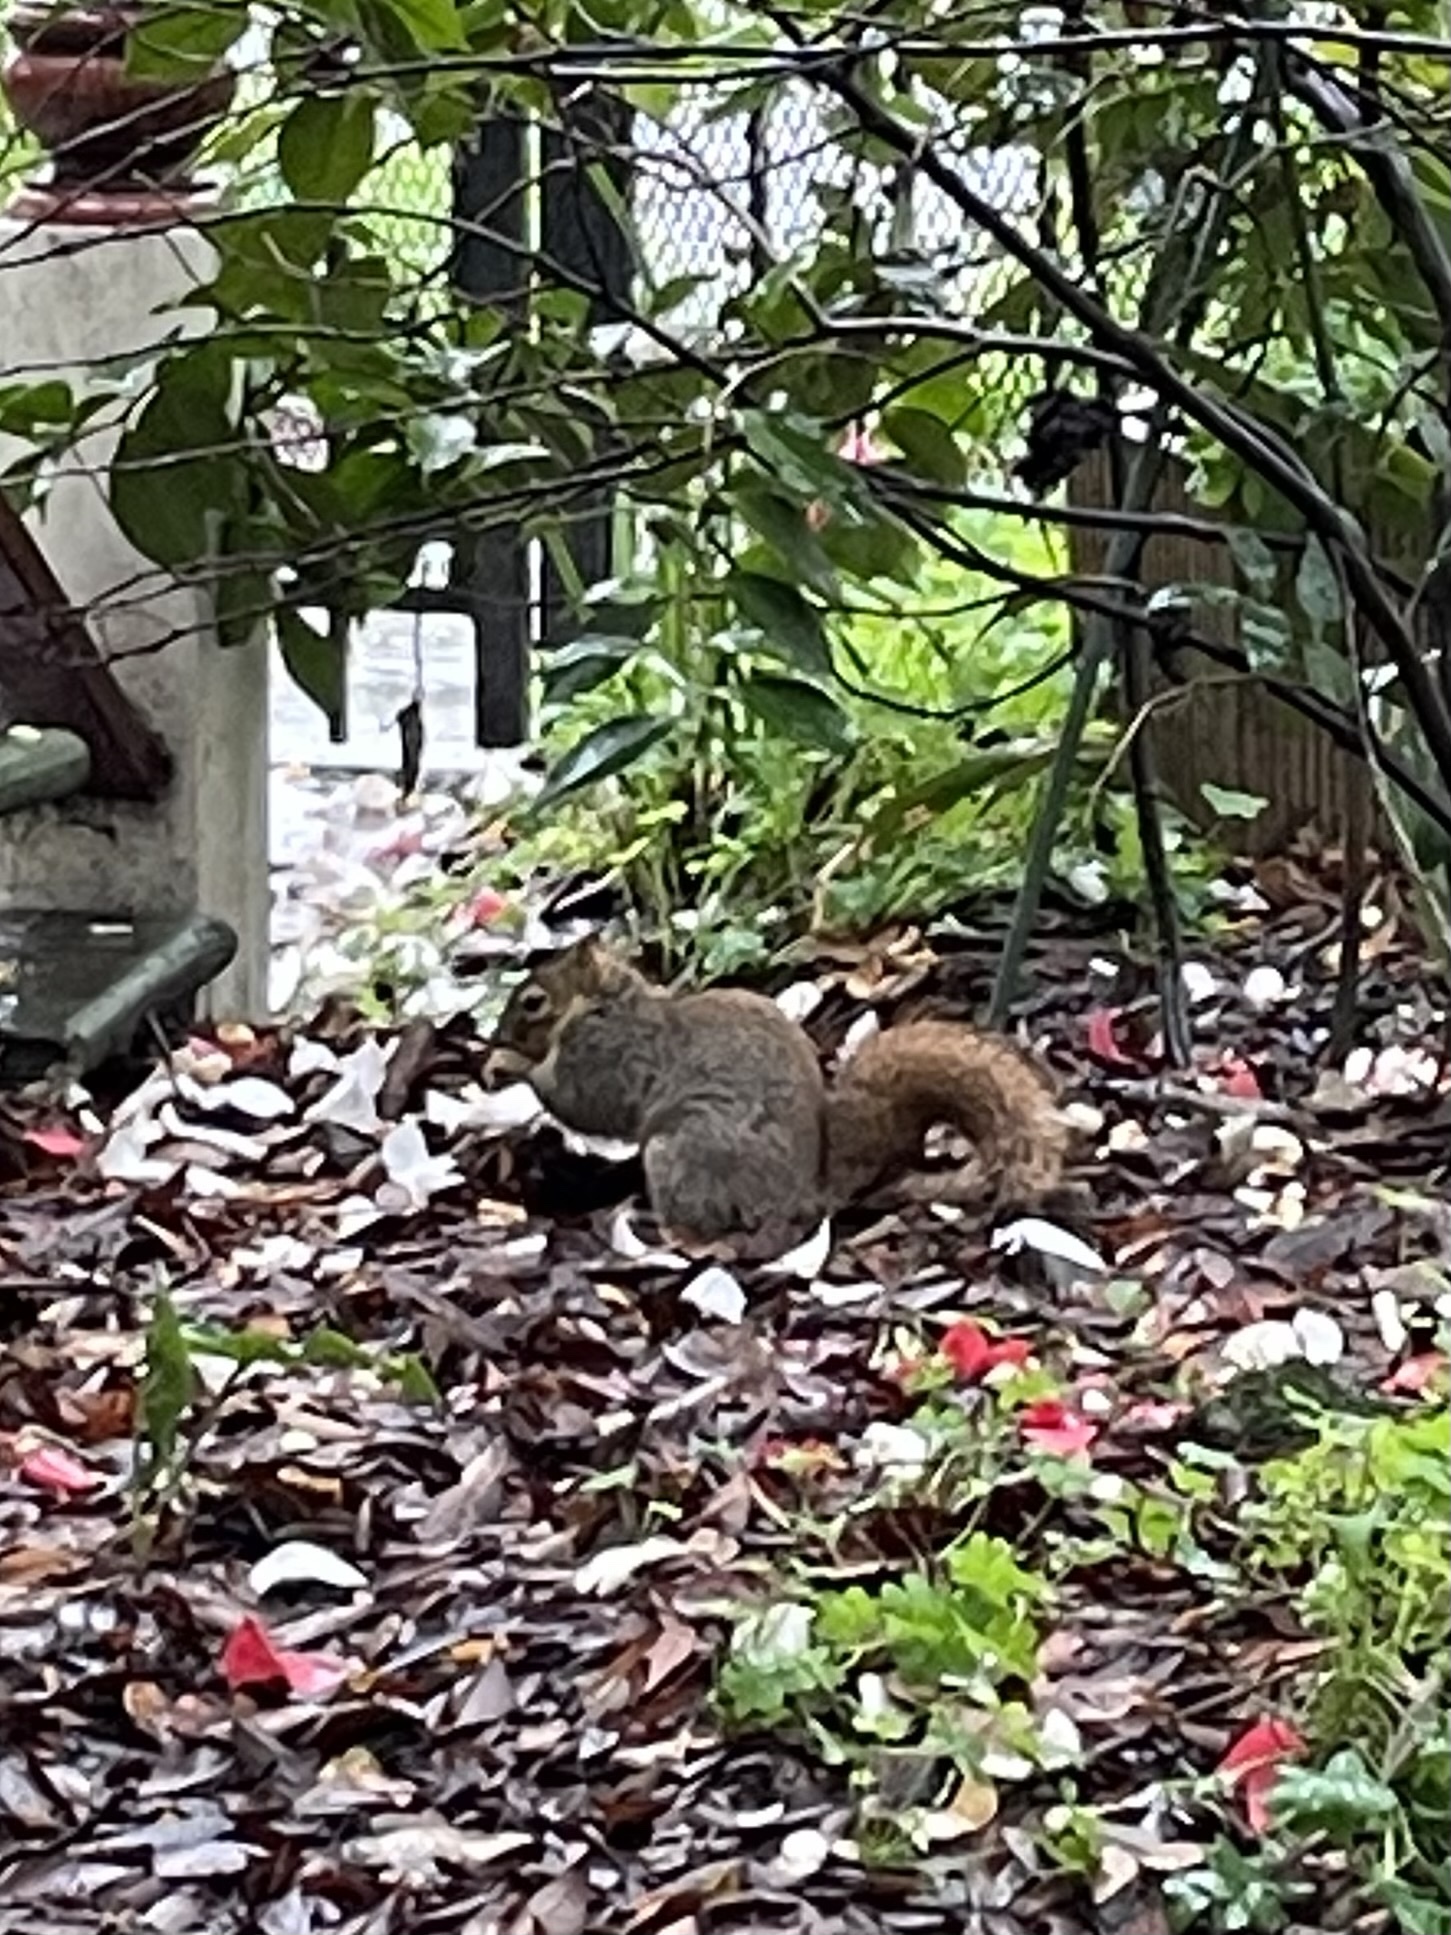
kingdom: Animalia
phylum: Chordata
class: Mammalia
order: Rodentia
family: Sciuridae
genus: Sciurus
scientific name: Sciurus niger
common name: Fox squirrel
